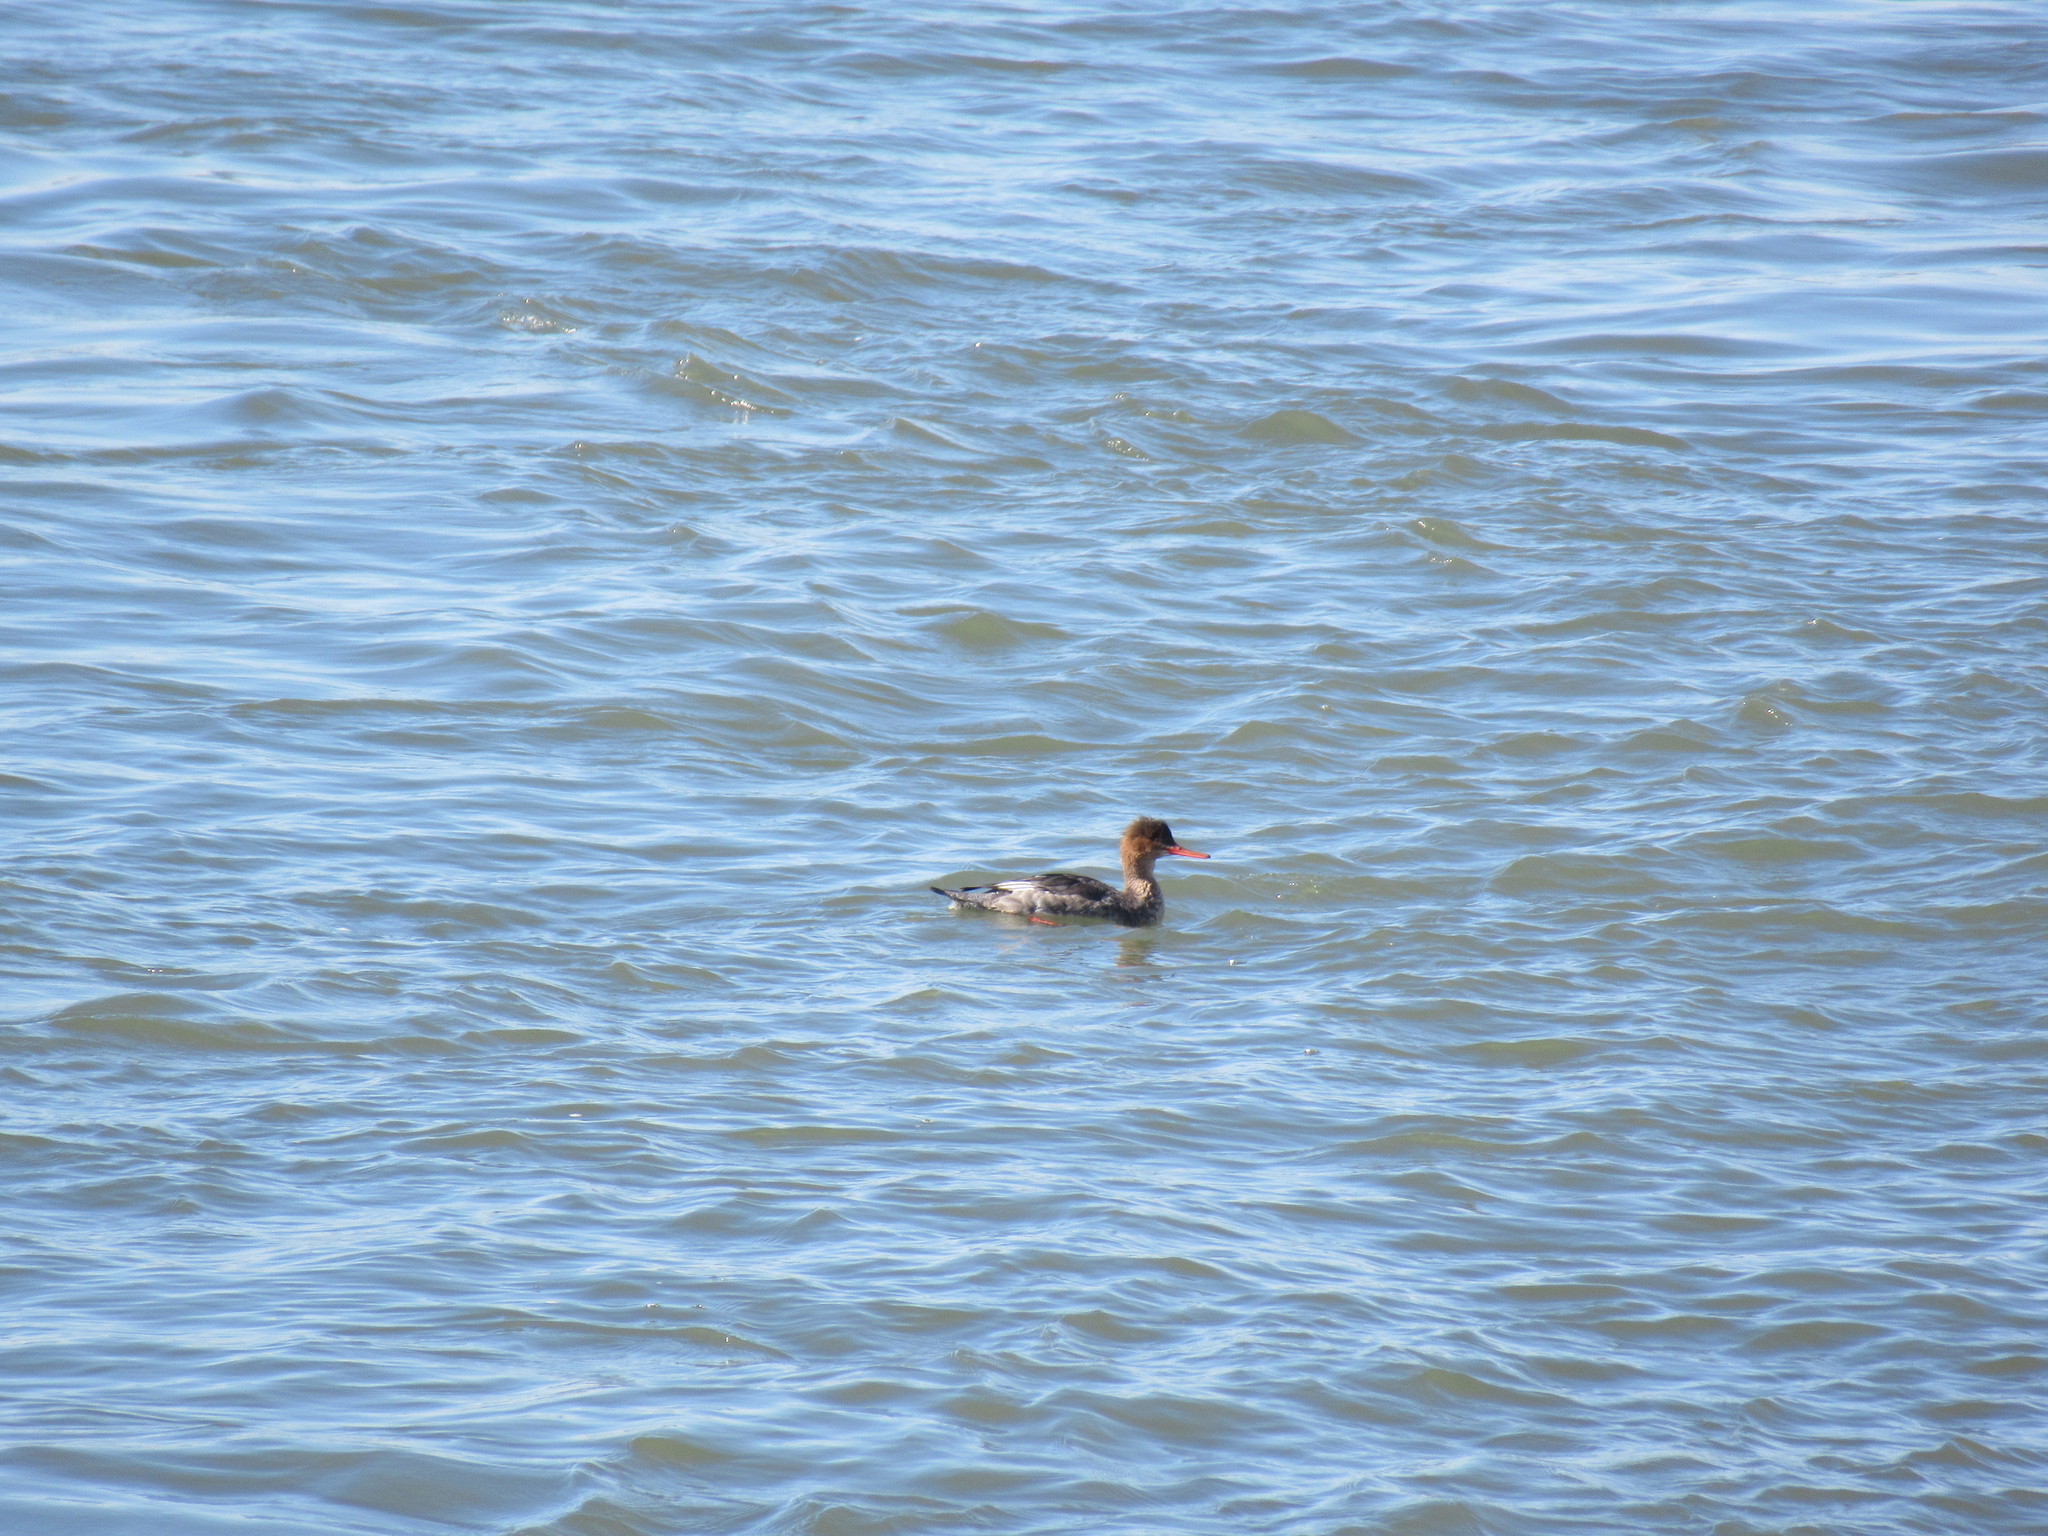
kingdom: Animalia
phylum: Chordata
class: Aves
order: Anseriformes
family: Anatidae
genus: Mergus
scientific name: Mergus serrator
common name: Red-breasted merganser
